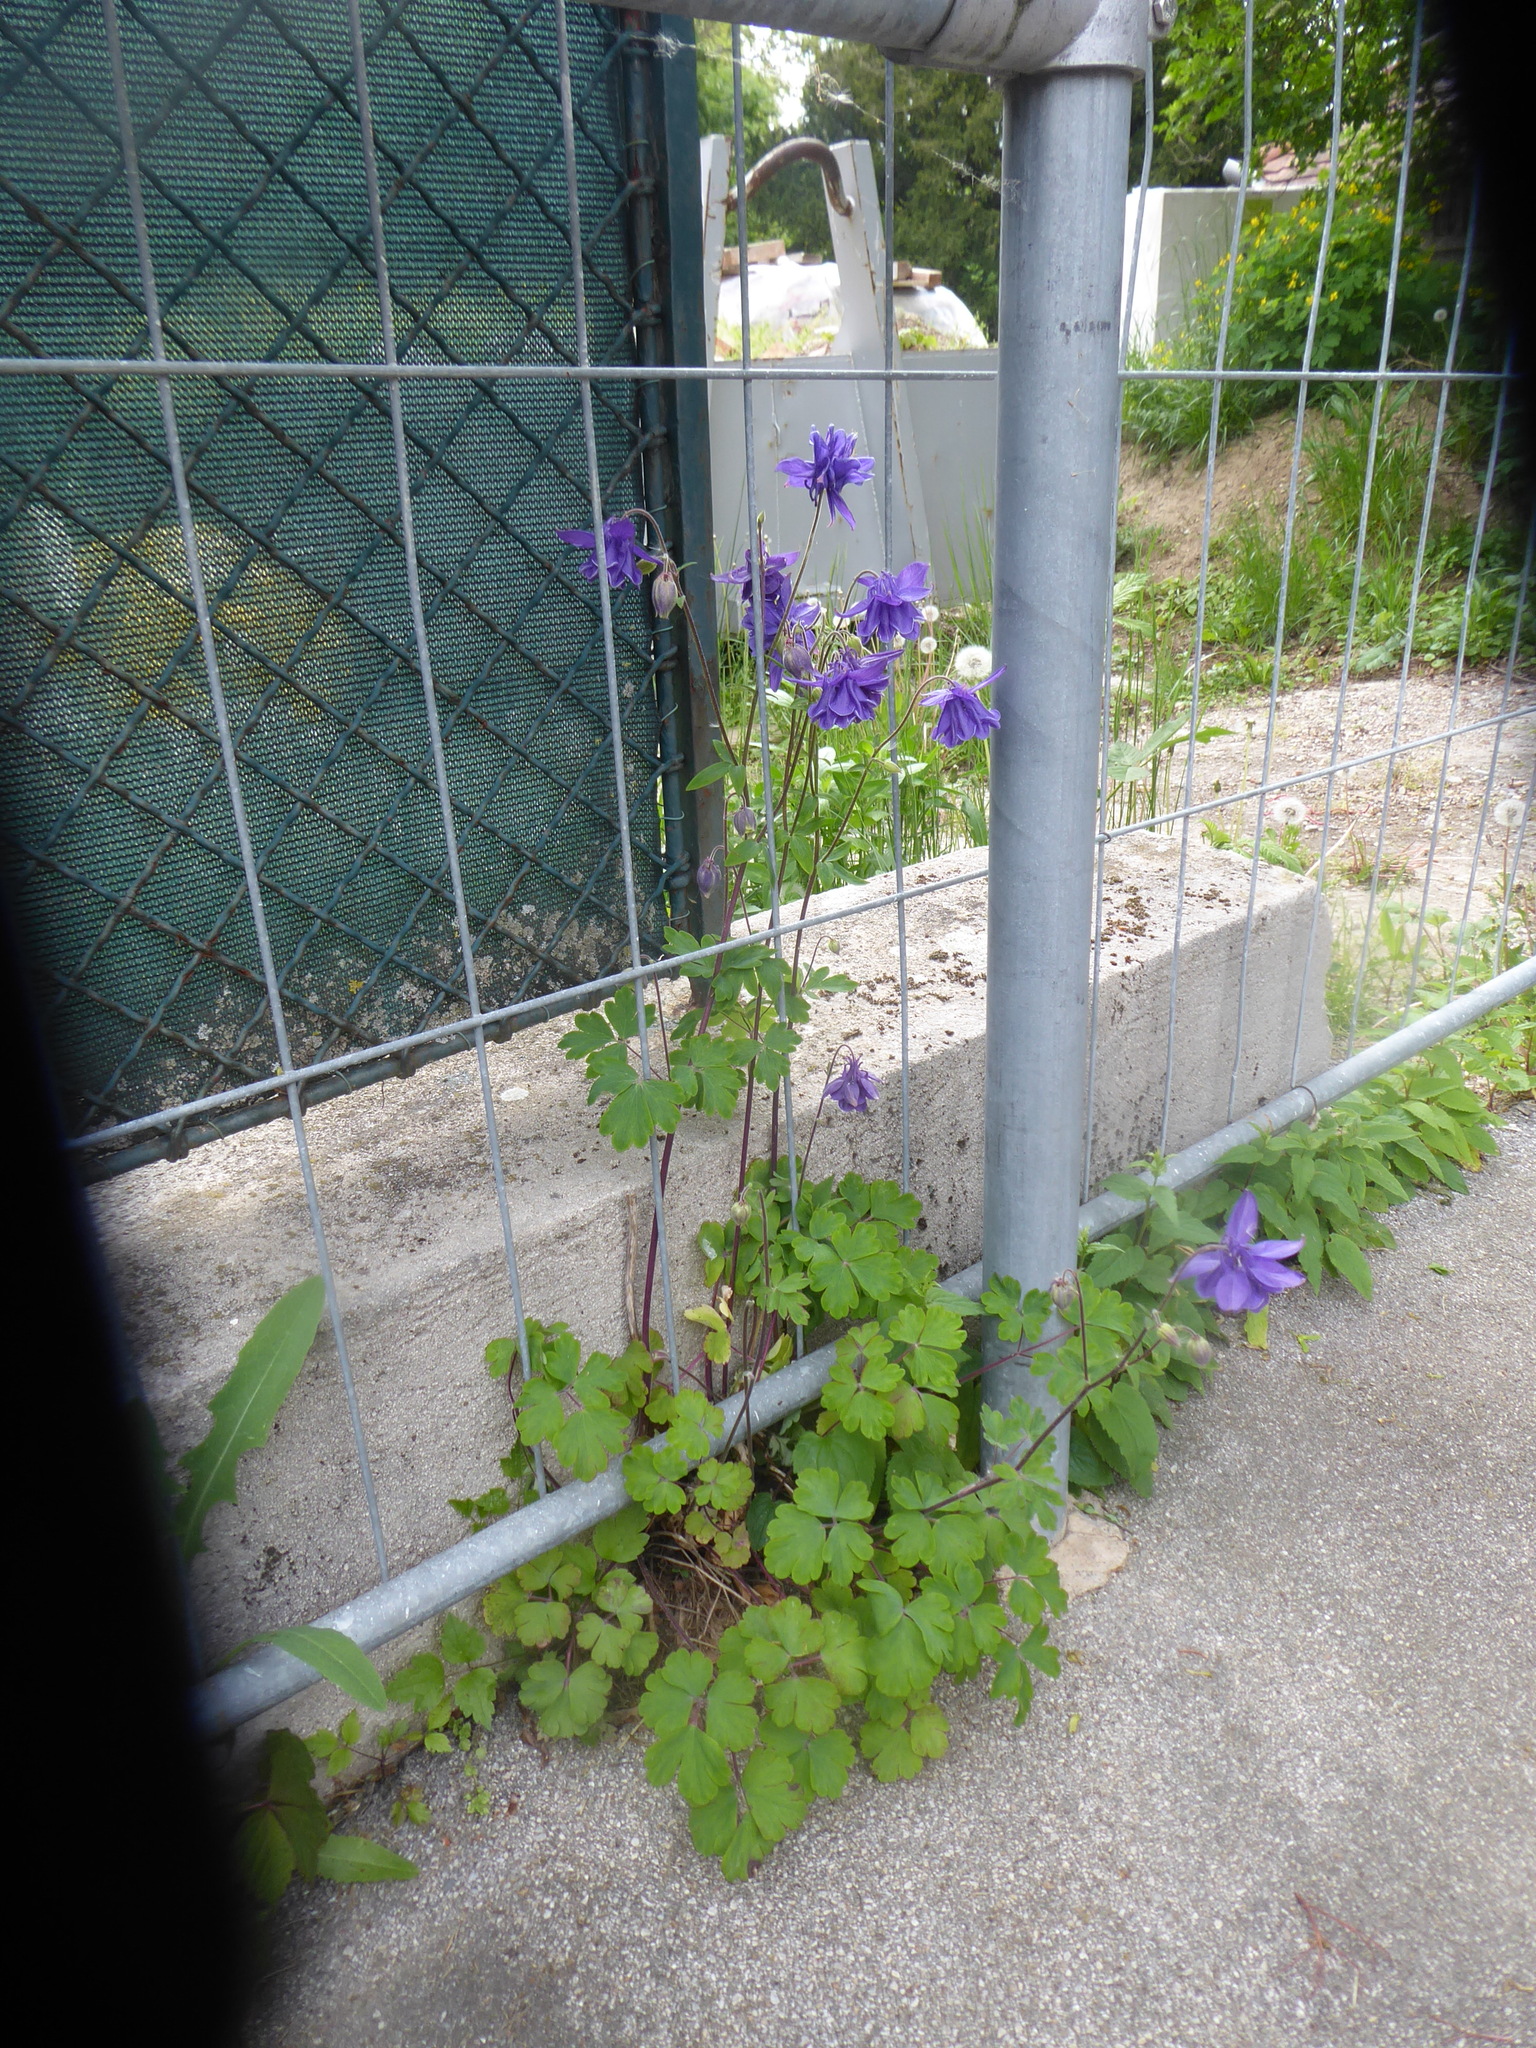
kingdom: Plantae
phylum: Tracheophyta
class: Magnoliopsida
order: Ranunculales
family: Ranunculaceae
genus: Aquilegia
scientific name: Aquilegia vulgaris
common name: Columbine
